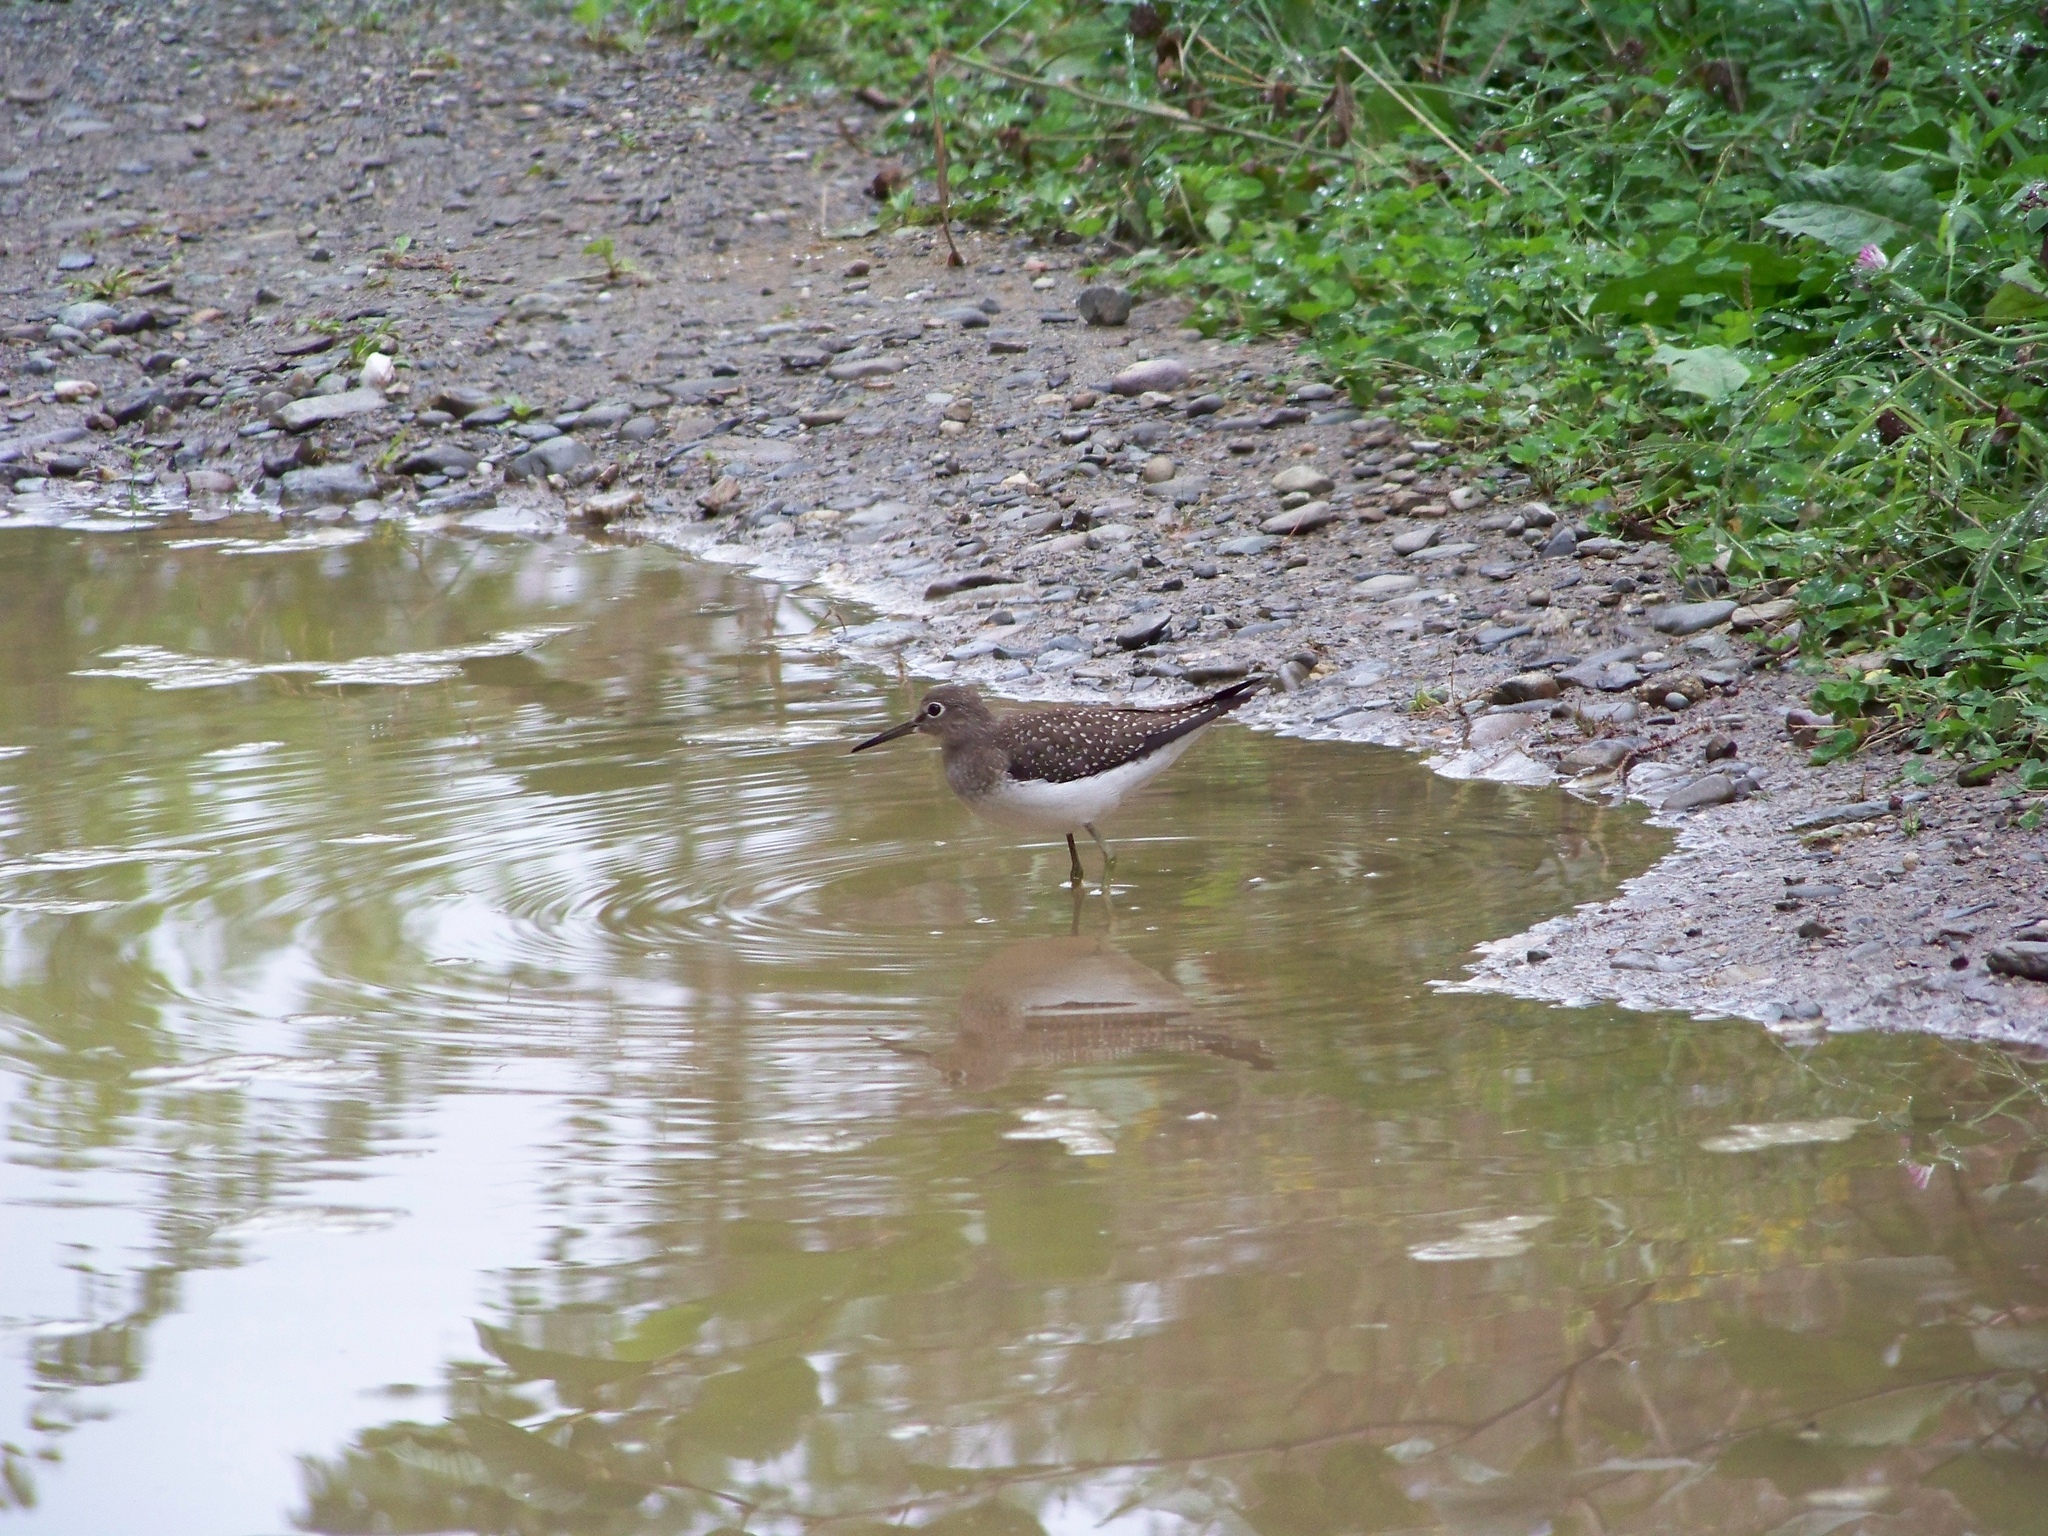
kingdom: Animalia
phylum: Chordata
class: Aves
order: Charadriiformes
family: Scolopacidae
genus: Tringa
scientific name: Tringa solitaria
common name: Solitary sandpiper
